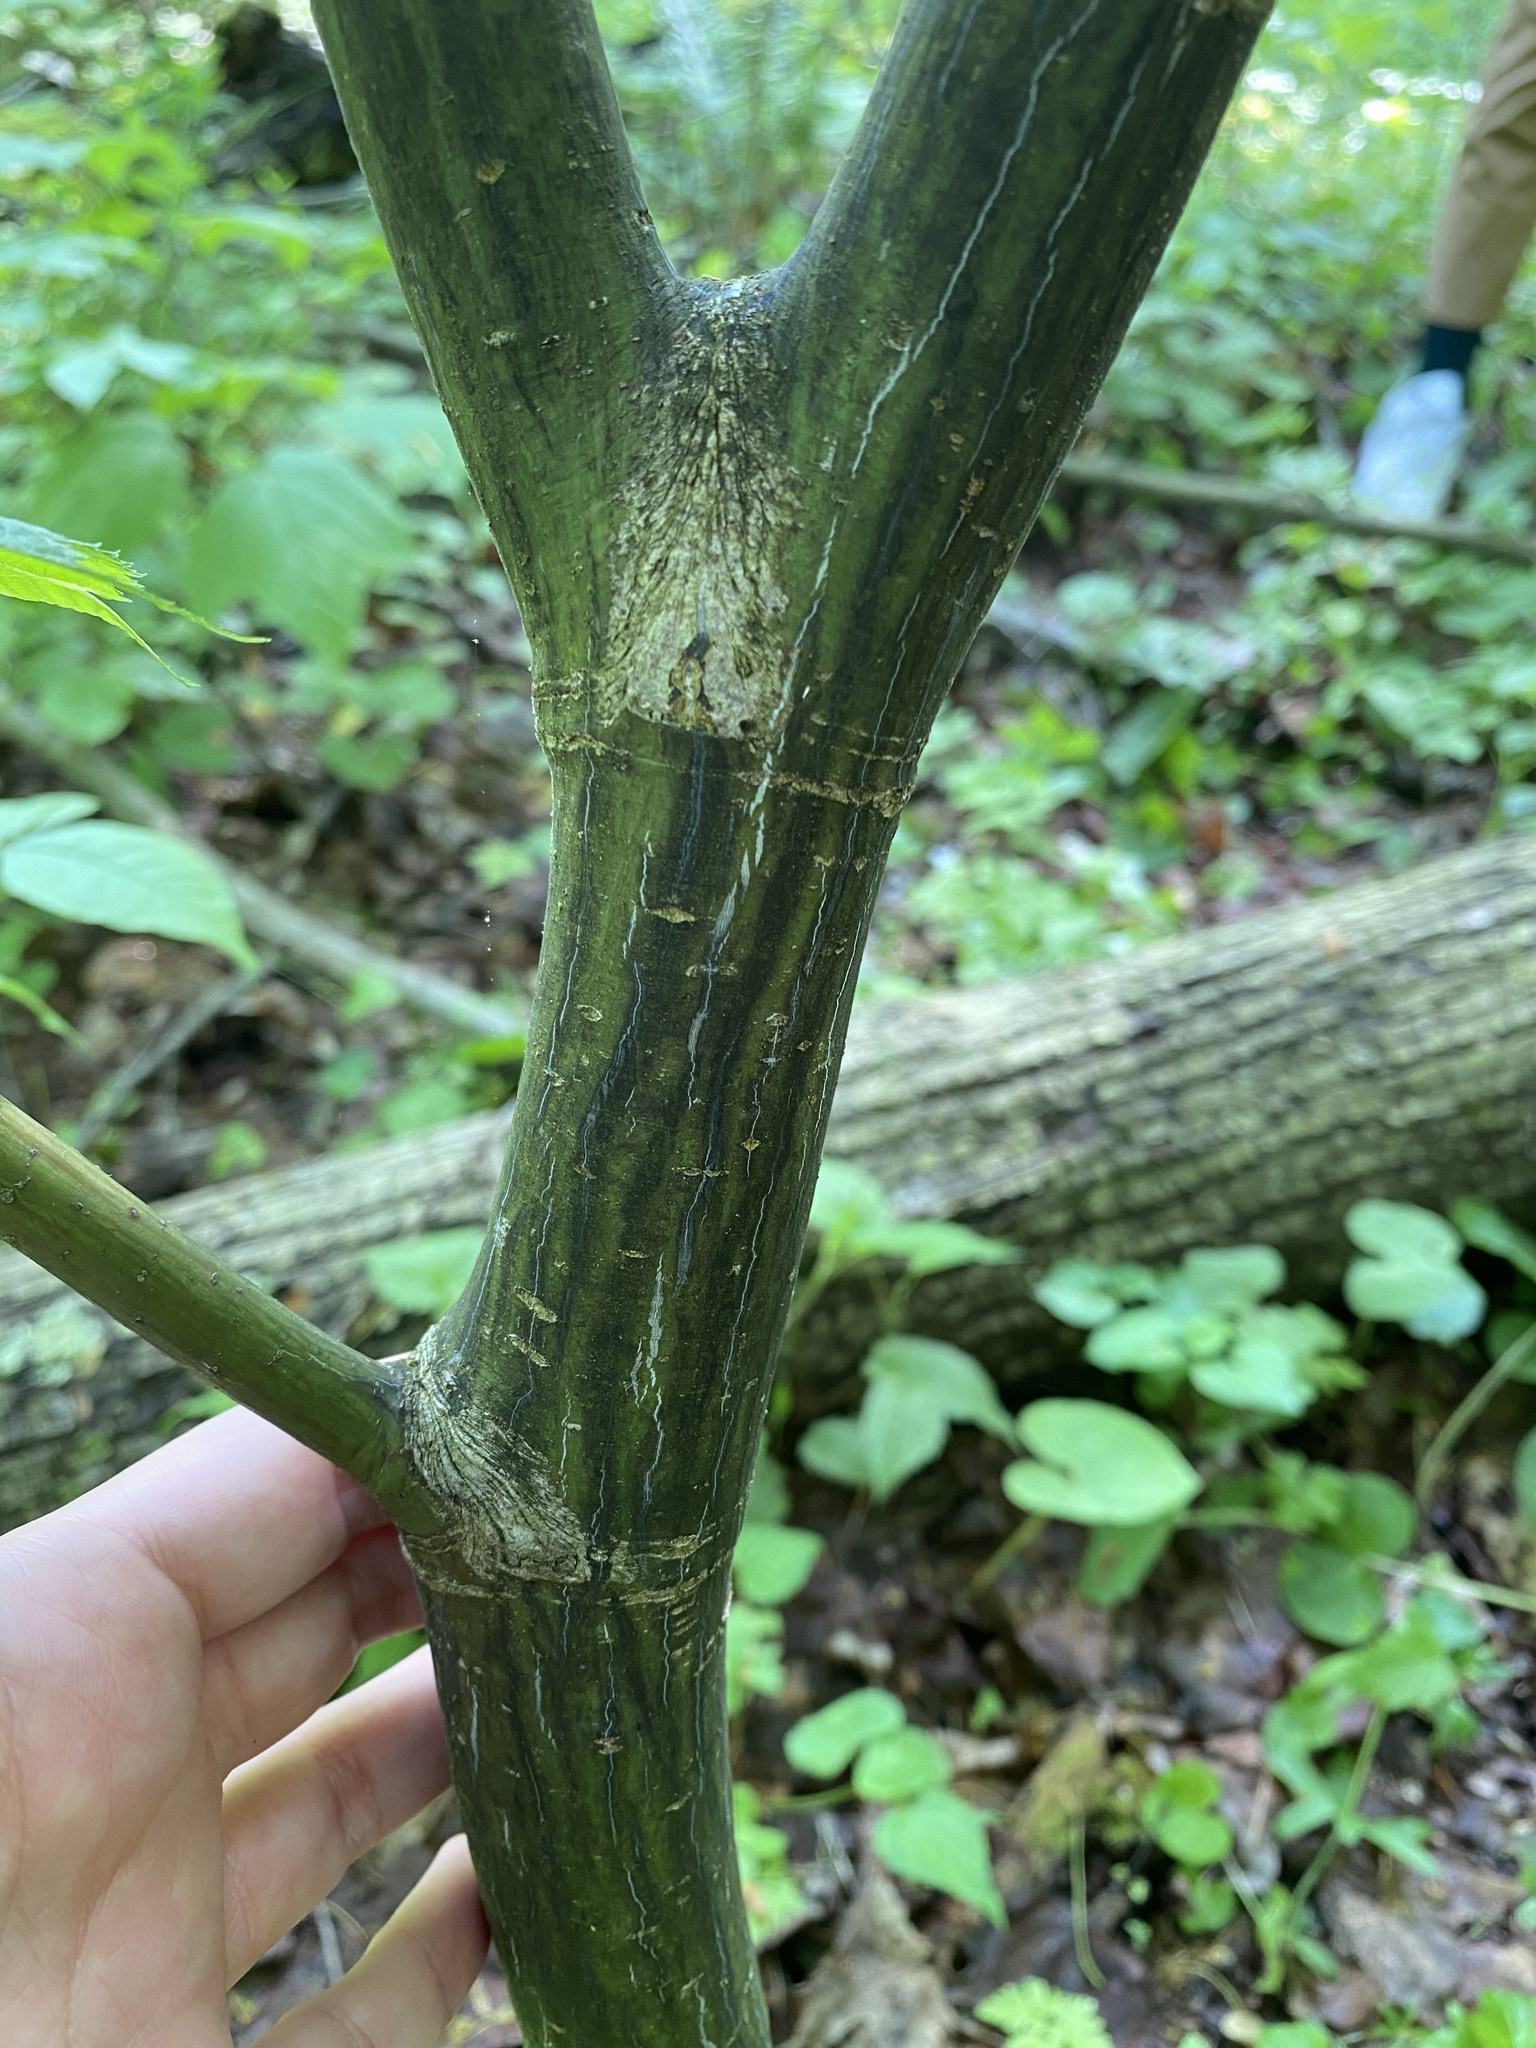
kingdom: Plantae
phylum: Tracheophyta
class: Magnoliopsida
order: Sapindales
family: Sapindaceae
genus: Acer
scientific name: Acer pensylvanicum
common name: Moosewood
